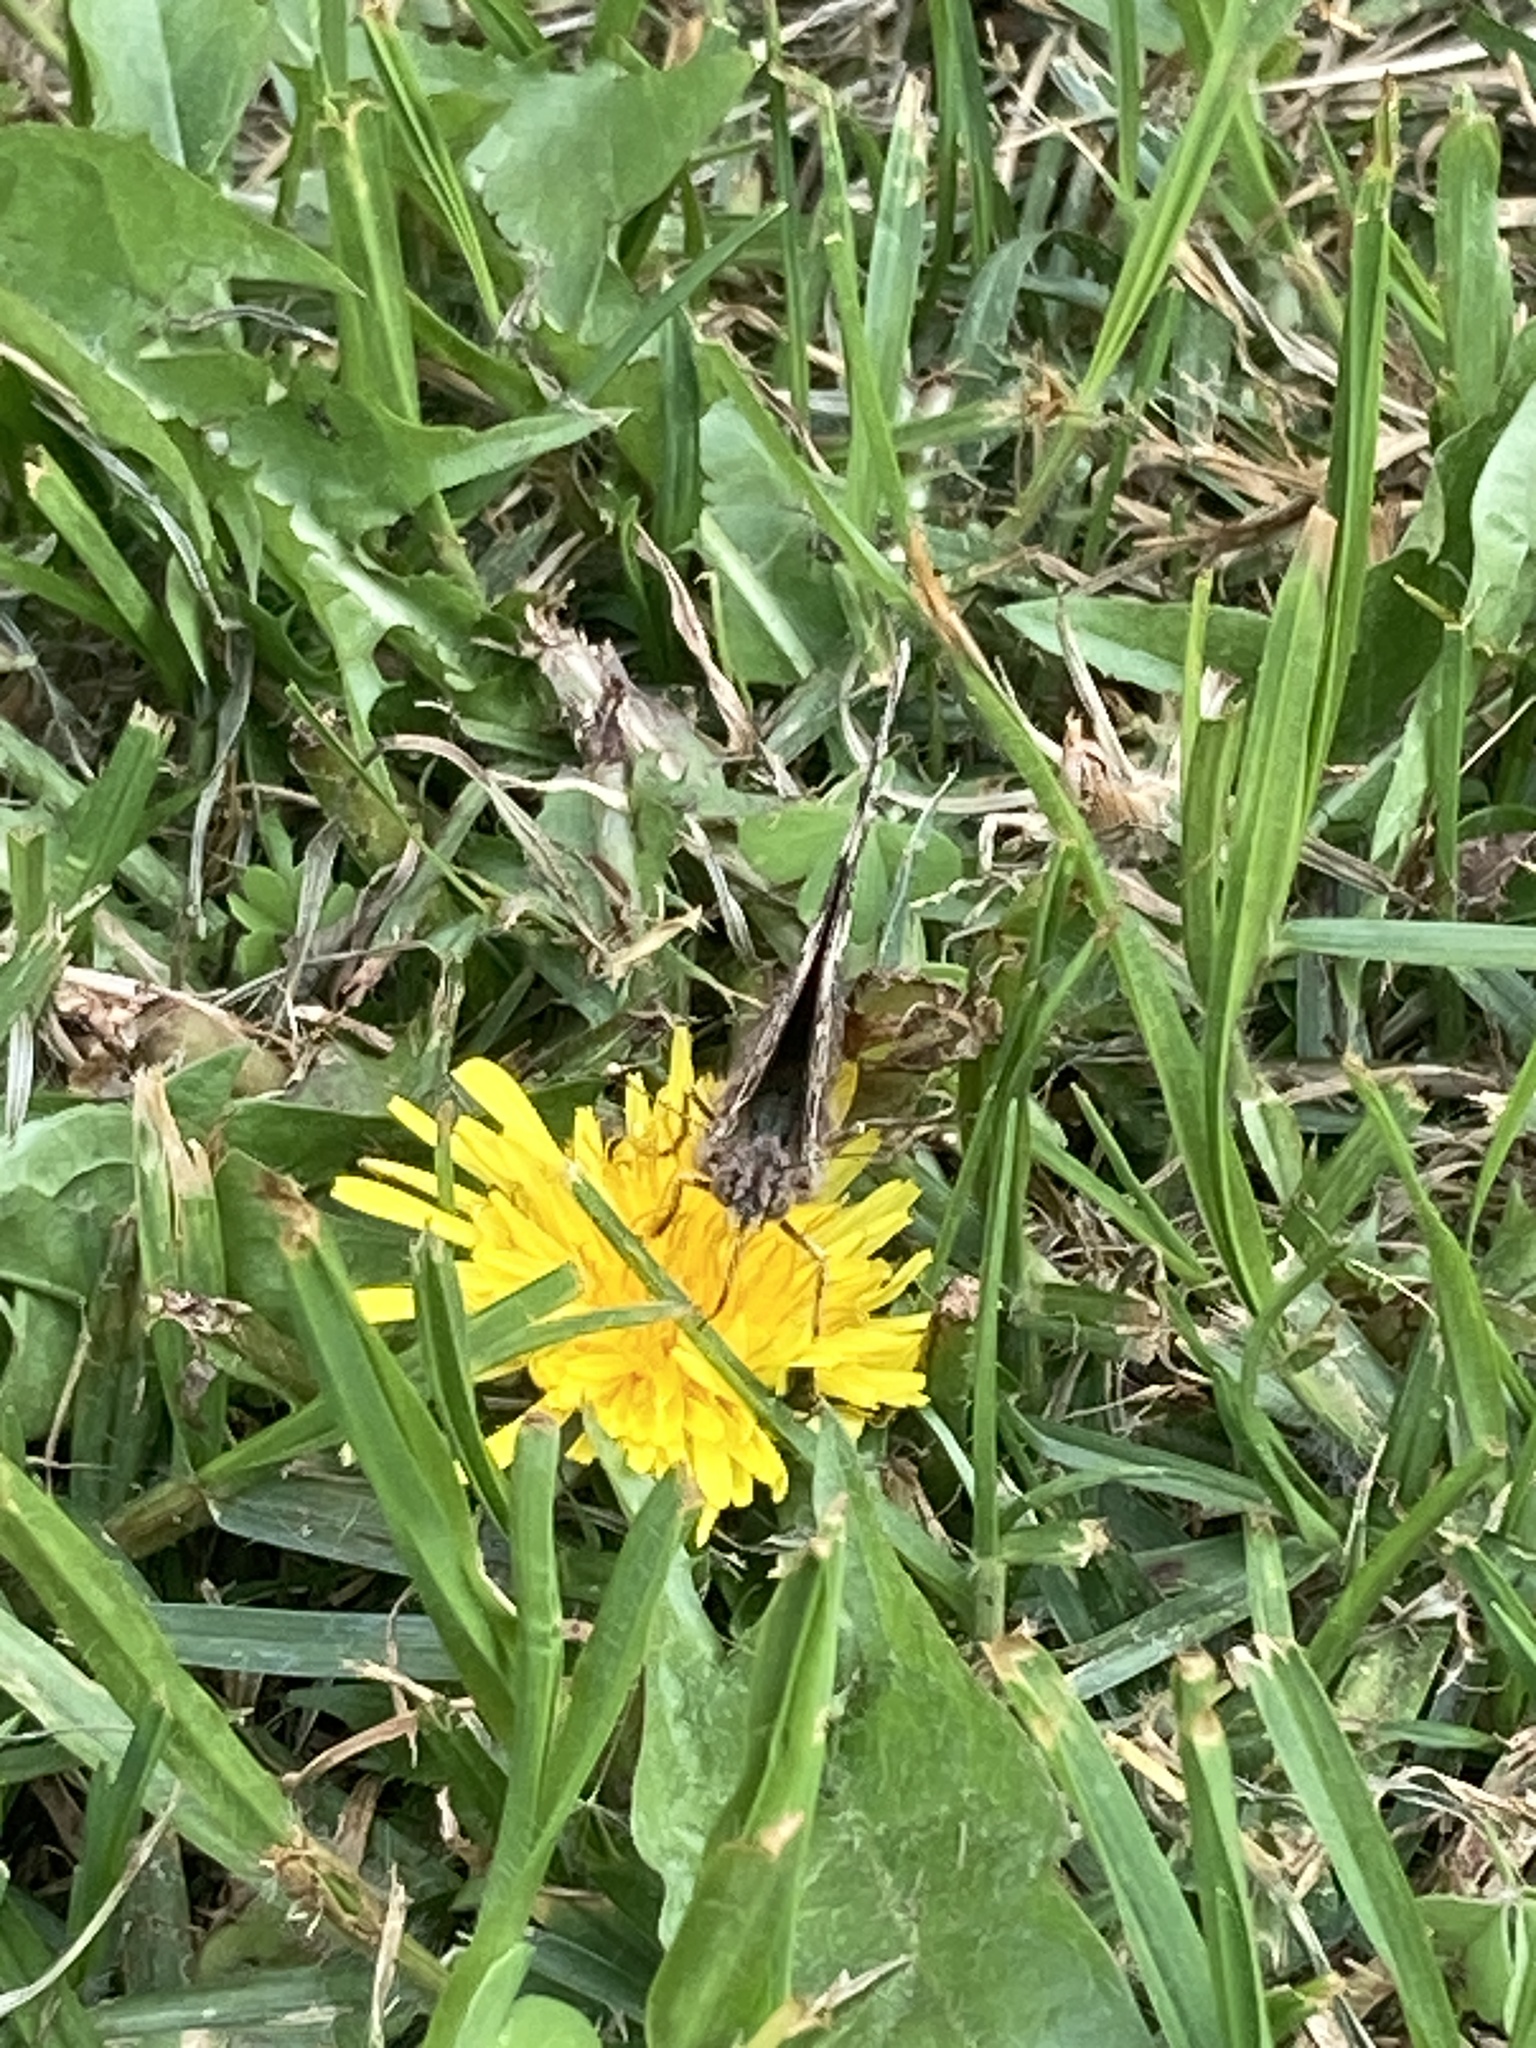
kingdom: Animalia
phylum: Arthropoda
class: Insecta
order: Lepidoptera
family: Nymphalidae
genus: Vanessa
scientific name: Vanessa carye
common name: Subtropical lady
